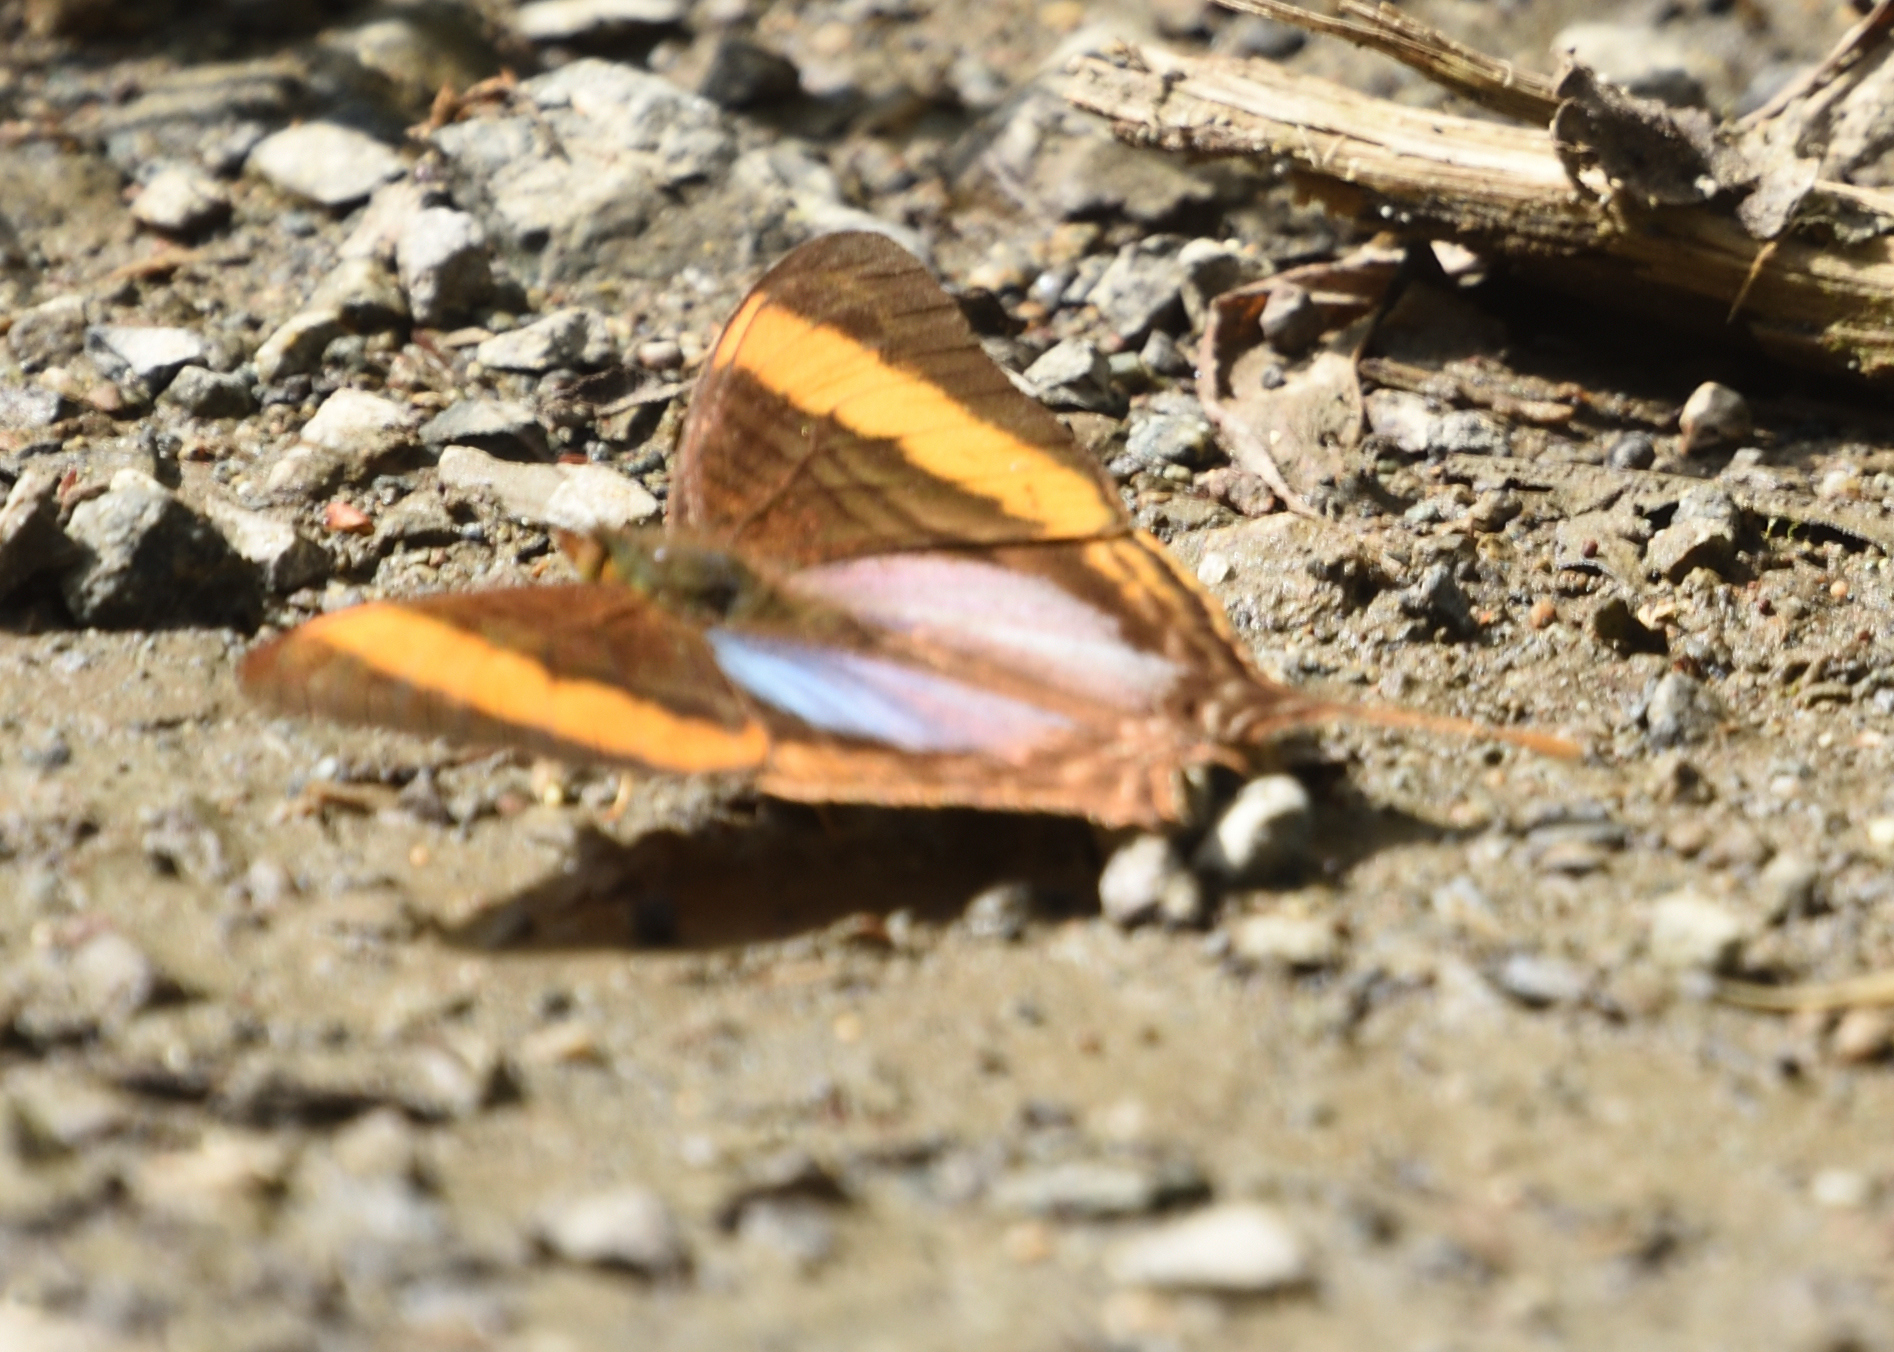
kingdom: Animalia
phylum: Arthropoda
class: Insecta
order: Lepidoptera
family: Nymphalidae
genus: Marpesia
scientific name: Marpesia corinna
